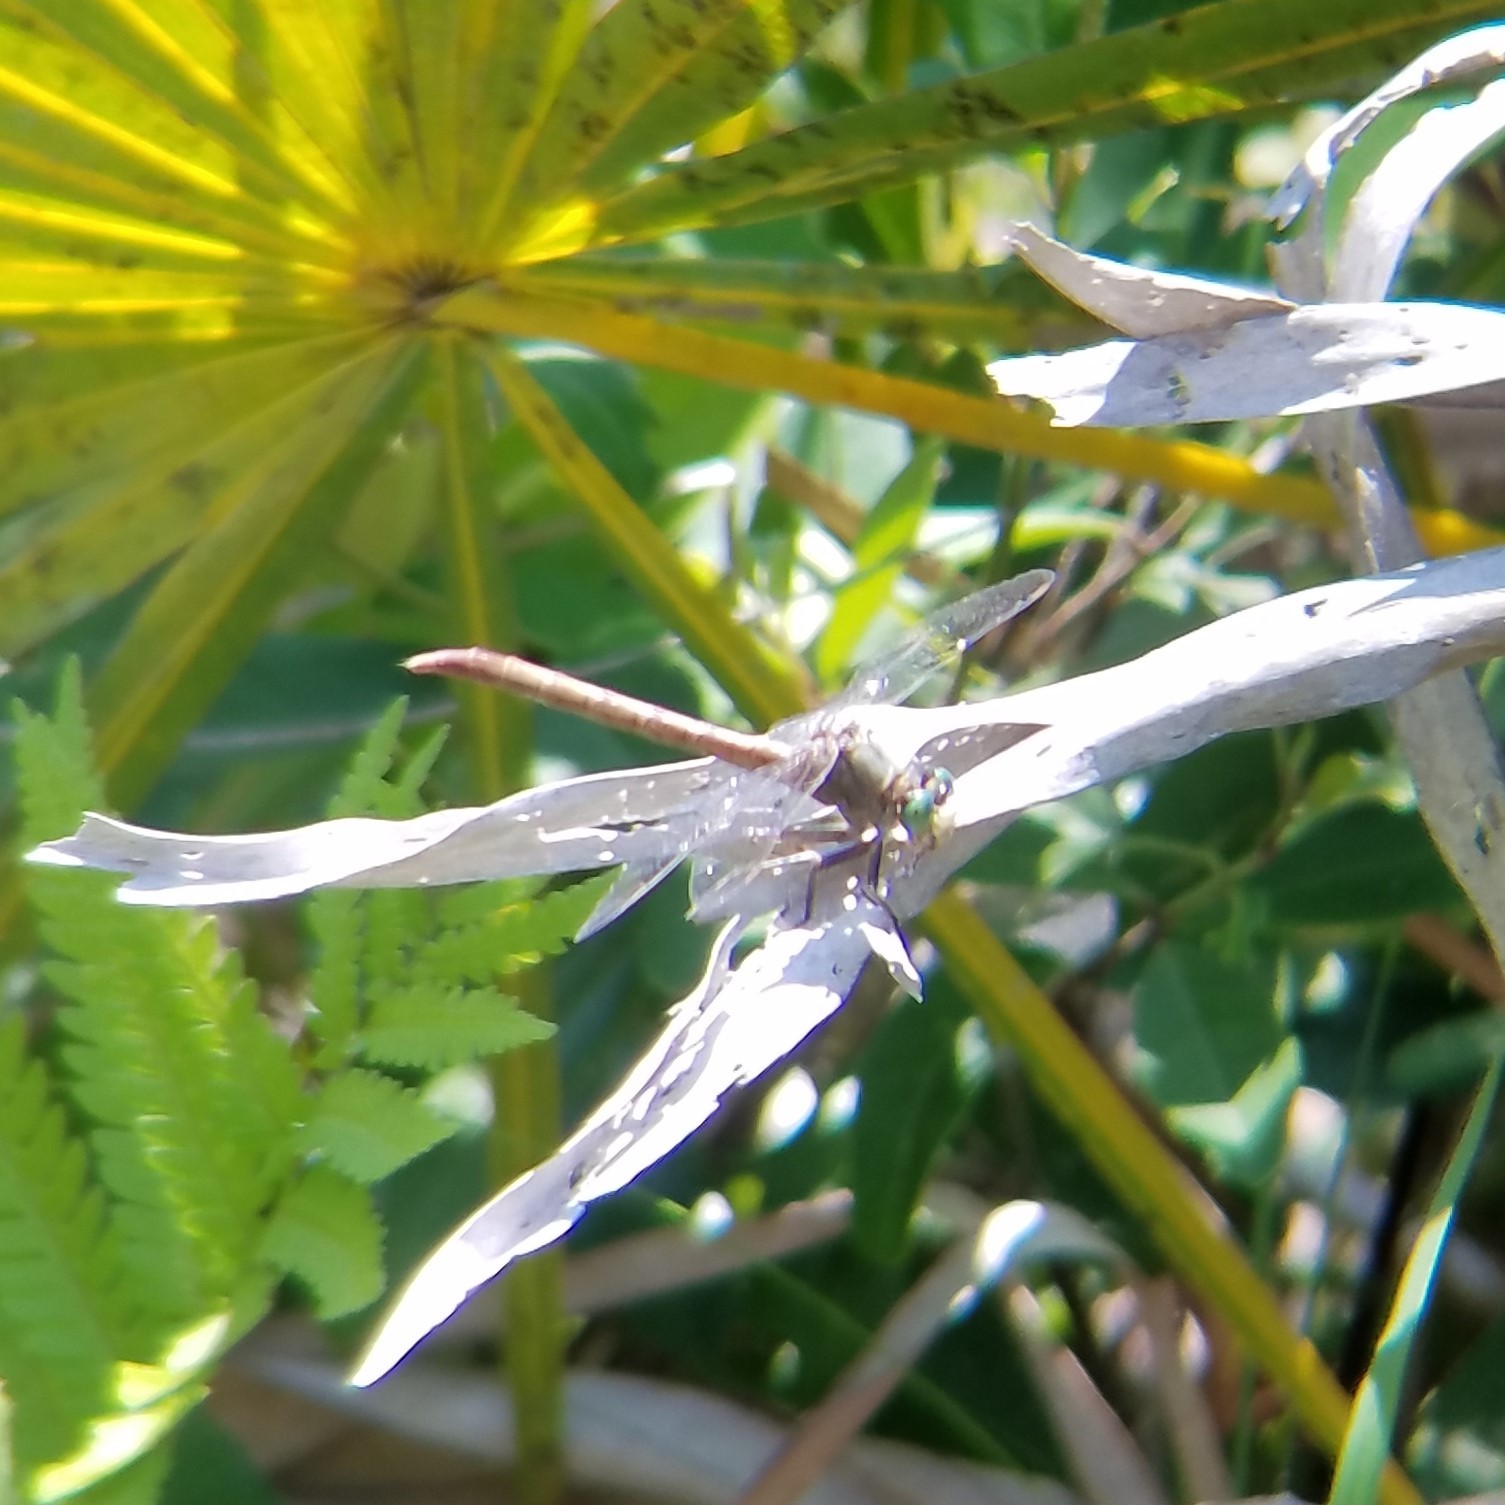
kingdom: Animalia
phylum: Arthropoda
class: Insecta
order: Odonata
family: Gomphidae
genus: Arigomphus
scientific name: Arigomphus pallidus
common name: Gray-green clubtail
